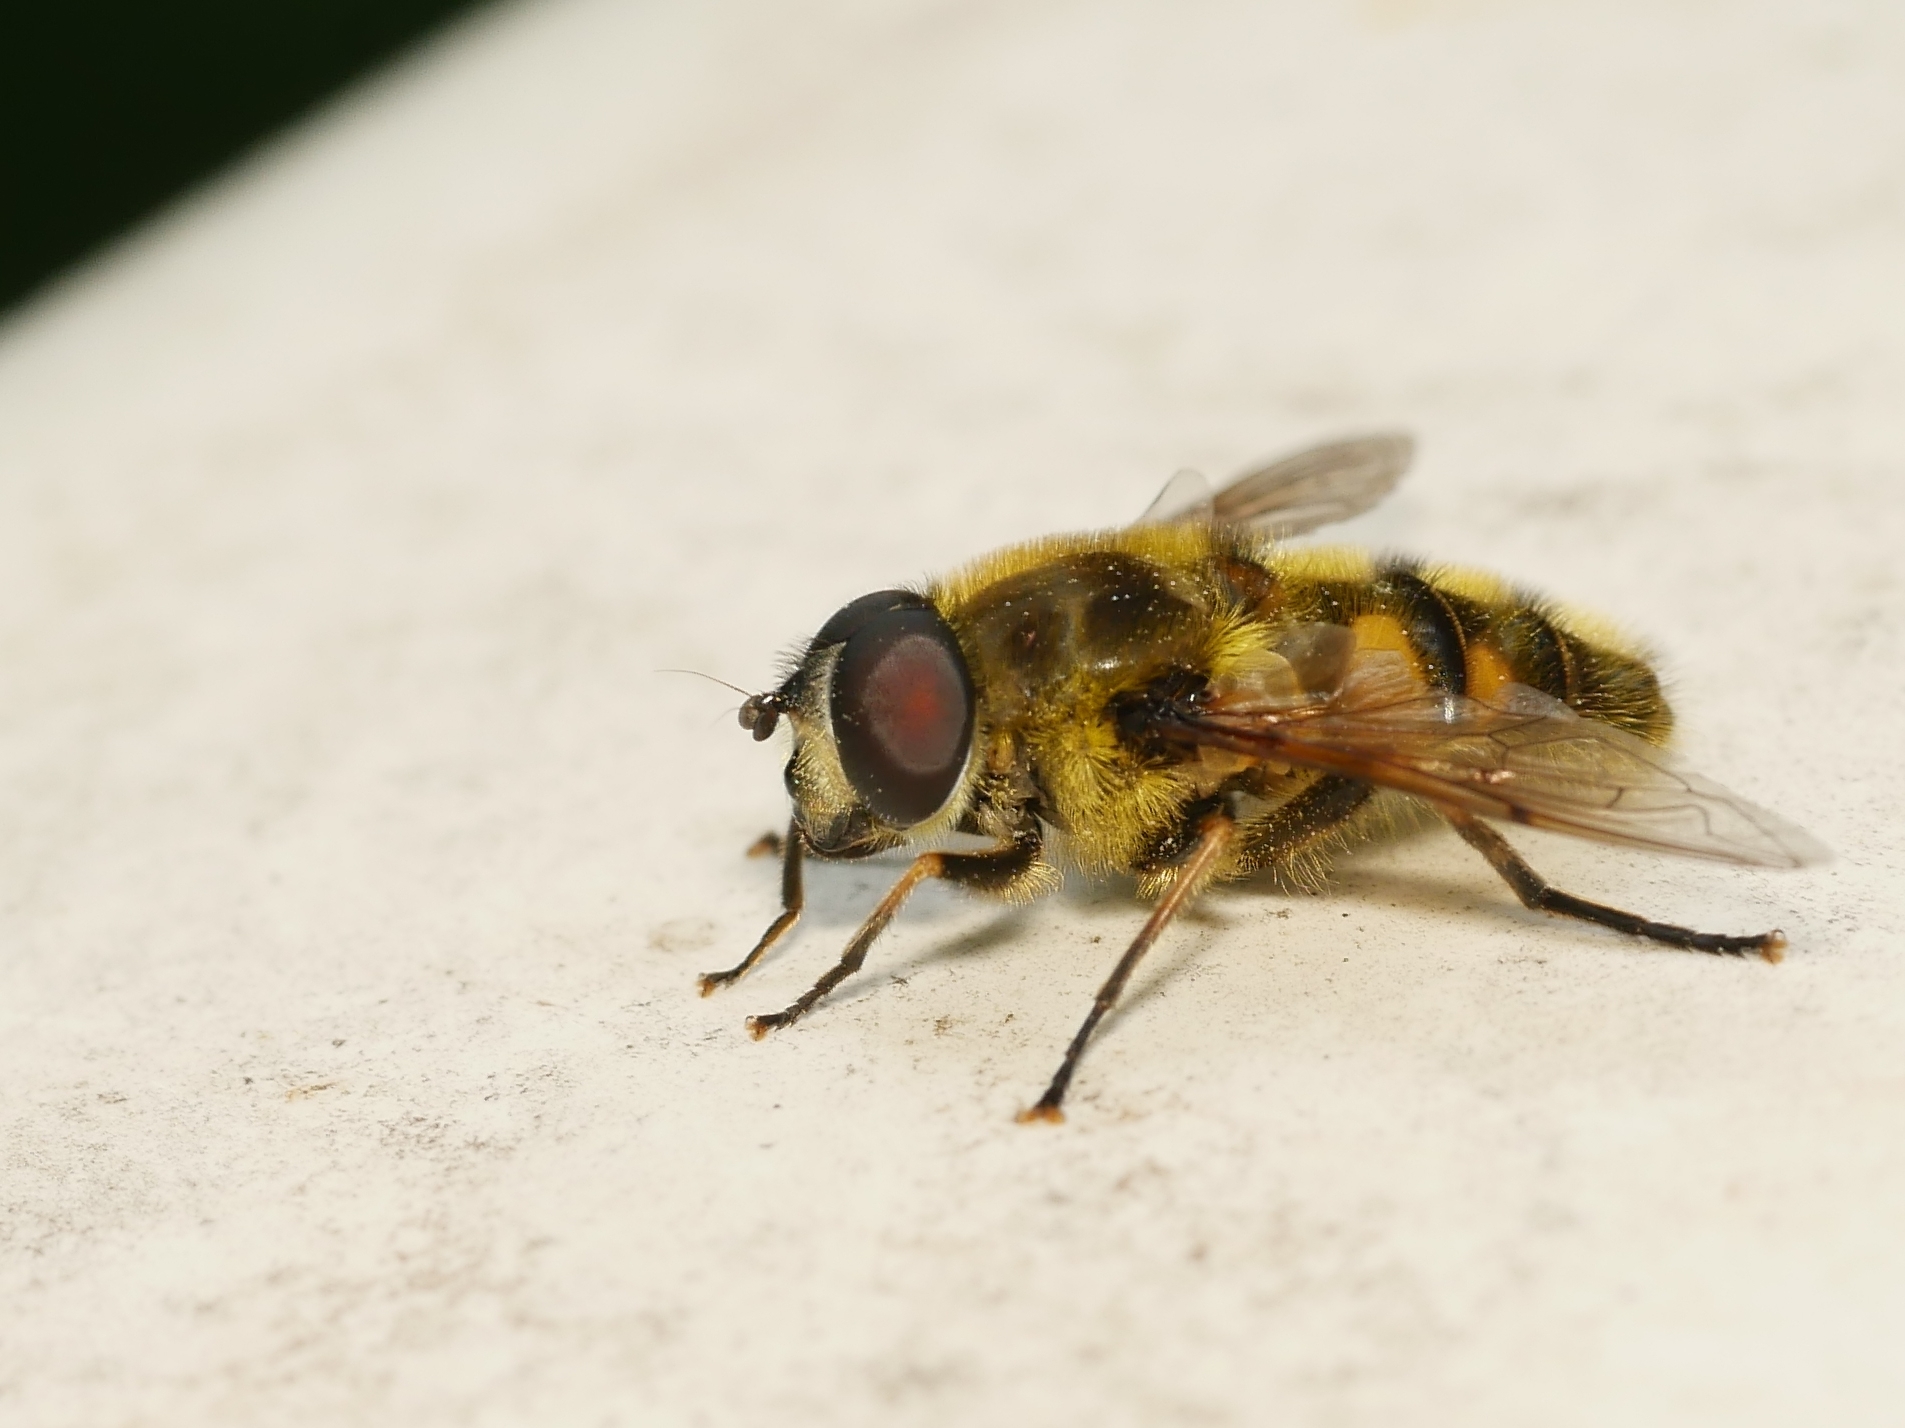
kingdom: Animalia
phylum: Arthropoda
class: Insecta
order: Diptera
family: Syrphidae
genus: Myathropa
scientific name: Myathropa florea
